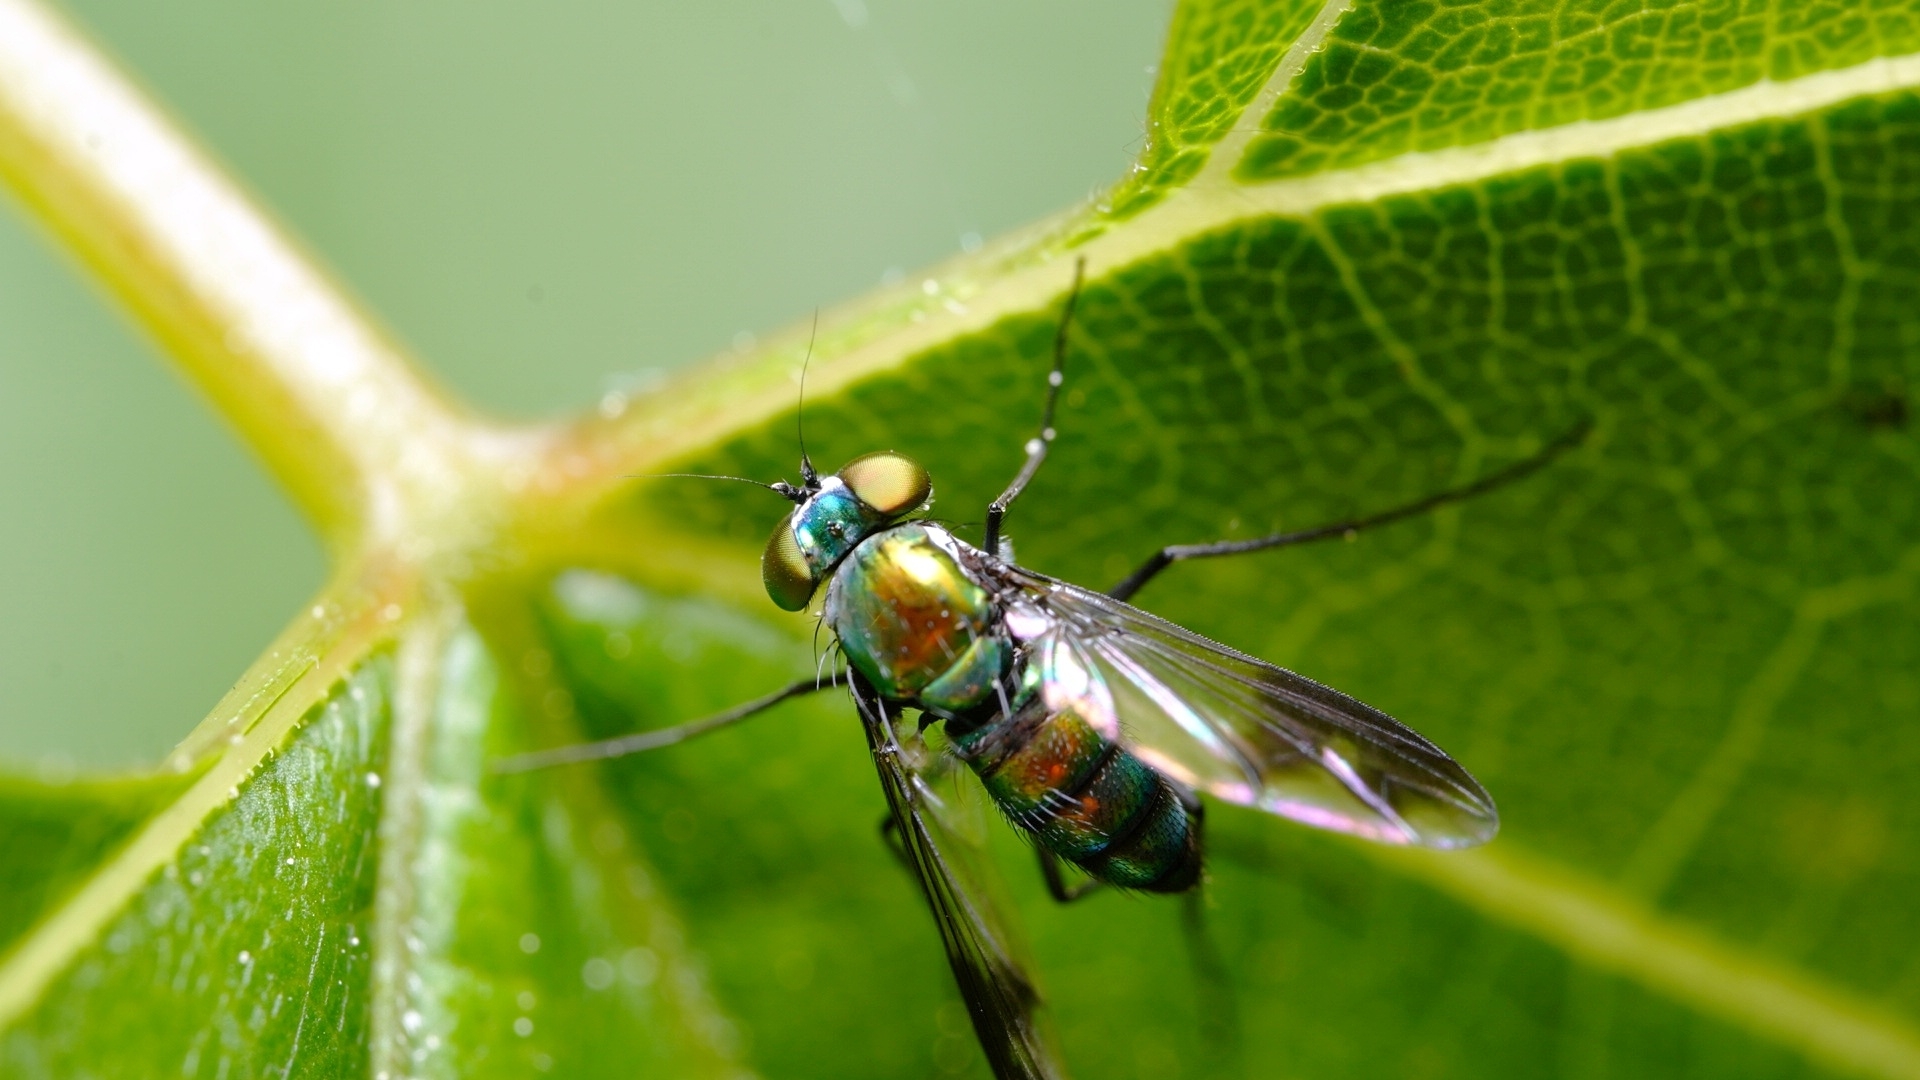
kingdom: Animalia
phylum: Arthropoda
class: Insecta
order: Diptera
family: Dolichopodidae
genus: Condylostylus
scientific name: Condylostylus patibulatus
